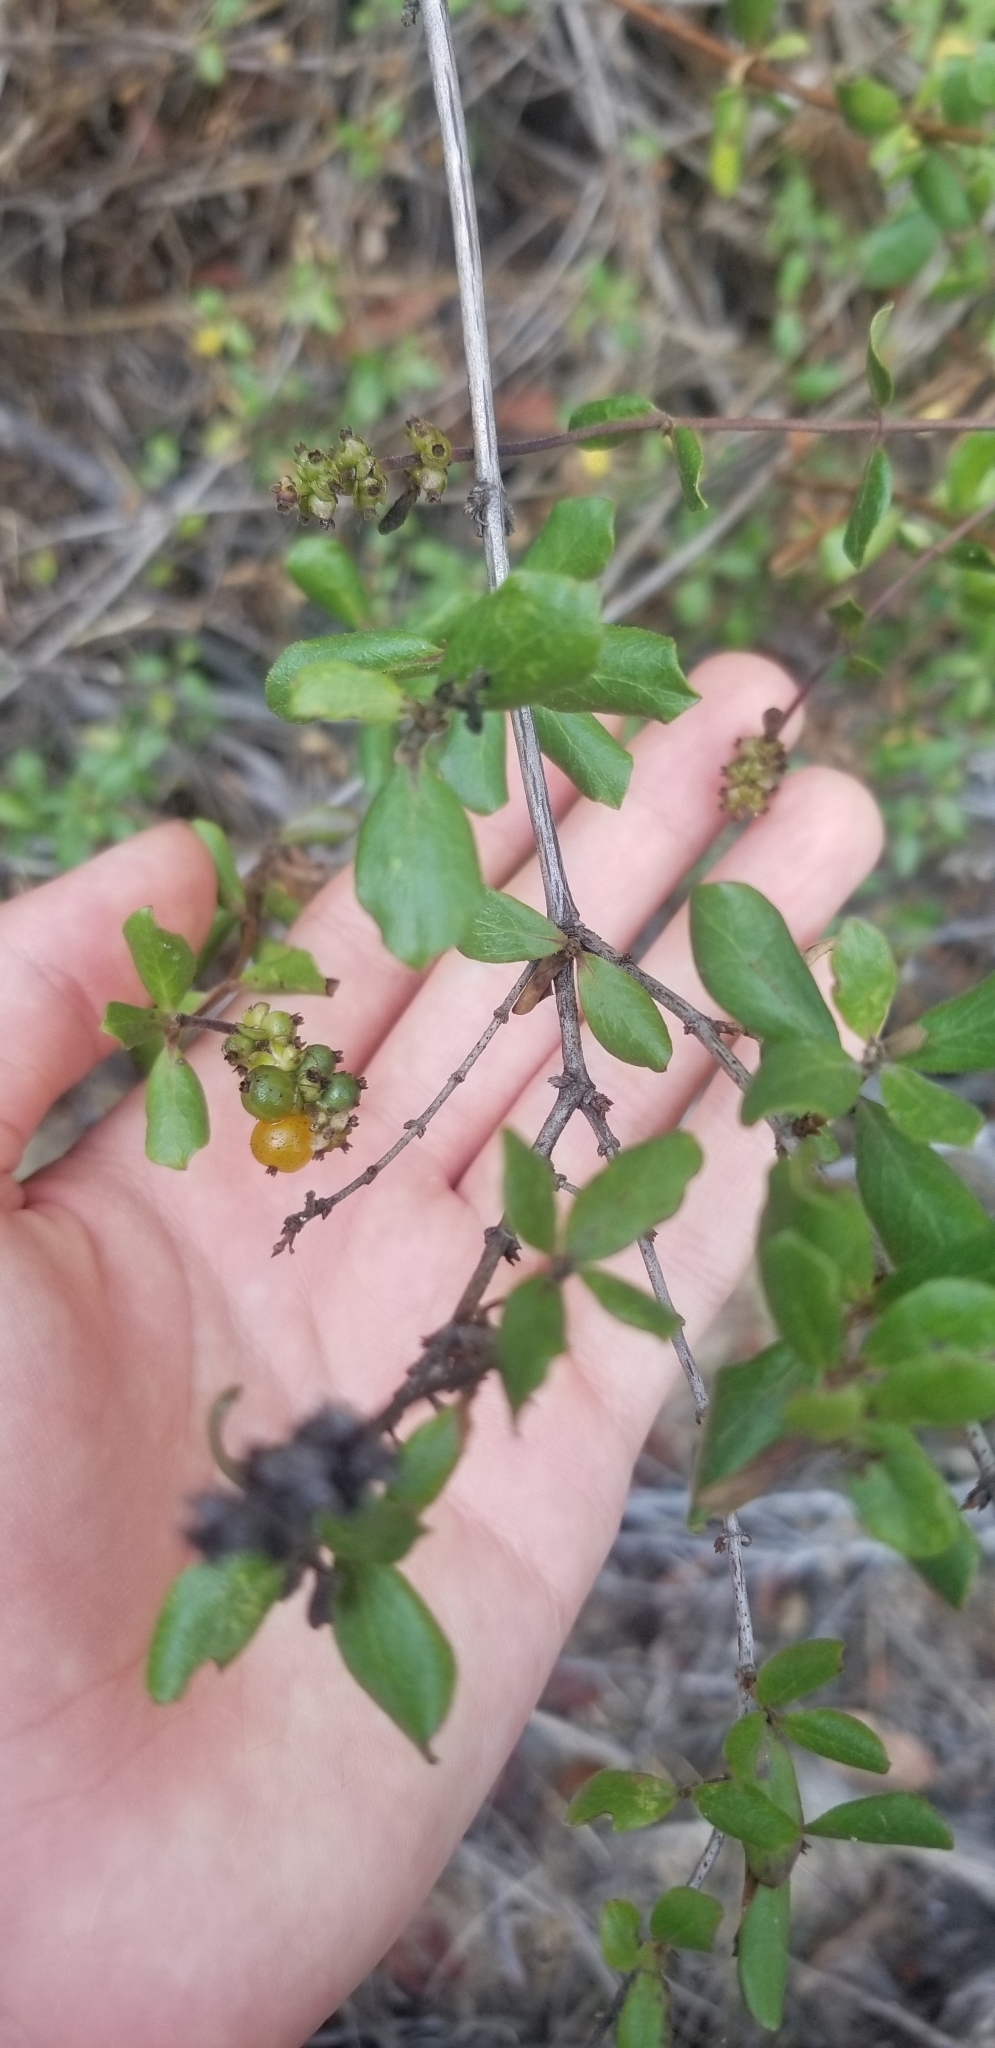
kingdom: Plantae
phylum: Tracheophyta
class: Magnoliopsida
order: Dipsacales
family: Caprifoliaceae
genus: Lonicera
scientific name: Lonicera subspicata
